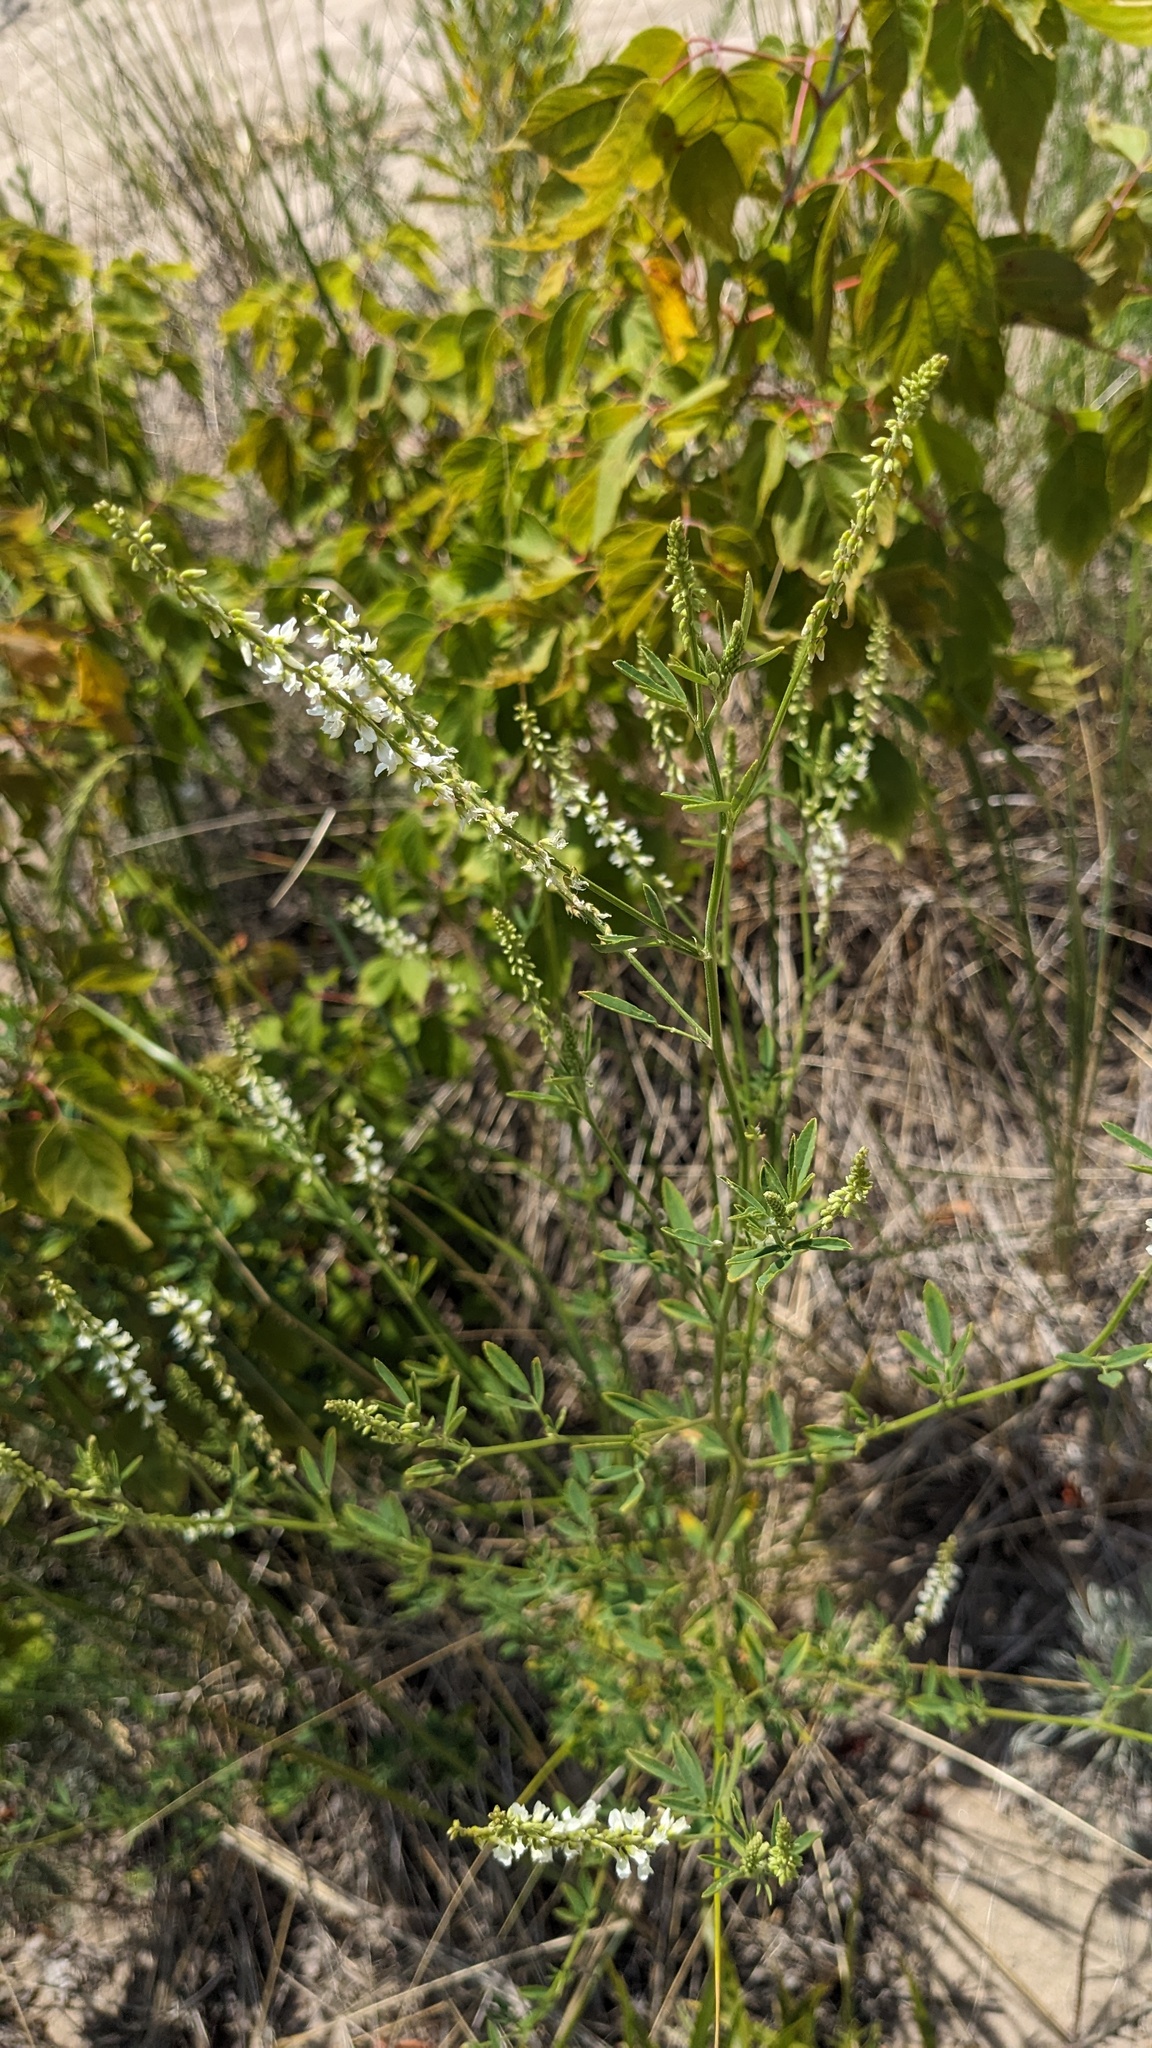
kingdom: Plantae
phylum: Tracheophyta
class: Magnoliopsida
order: Fabales
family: Fabaceae
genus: Melilotus
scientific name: Melilotus albus
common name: White melilot
